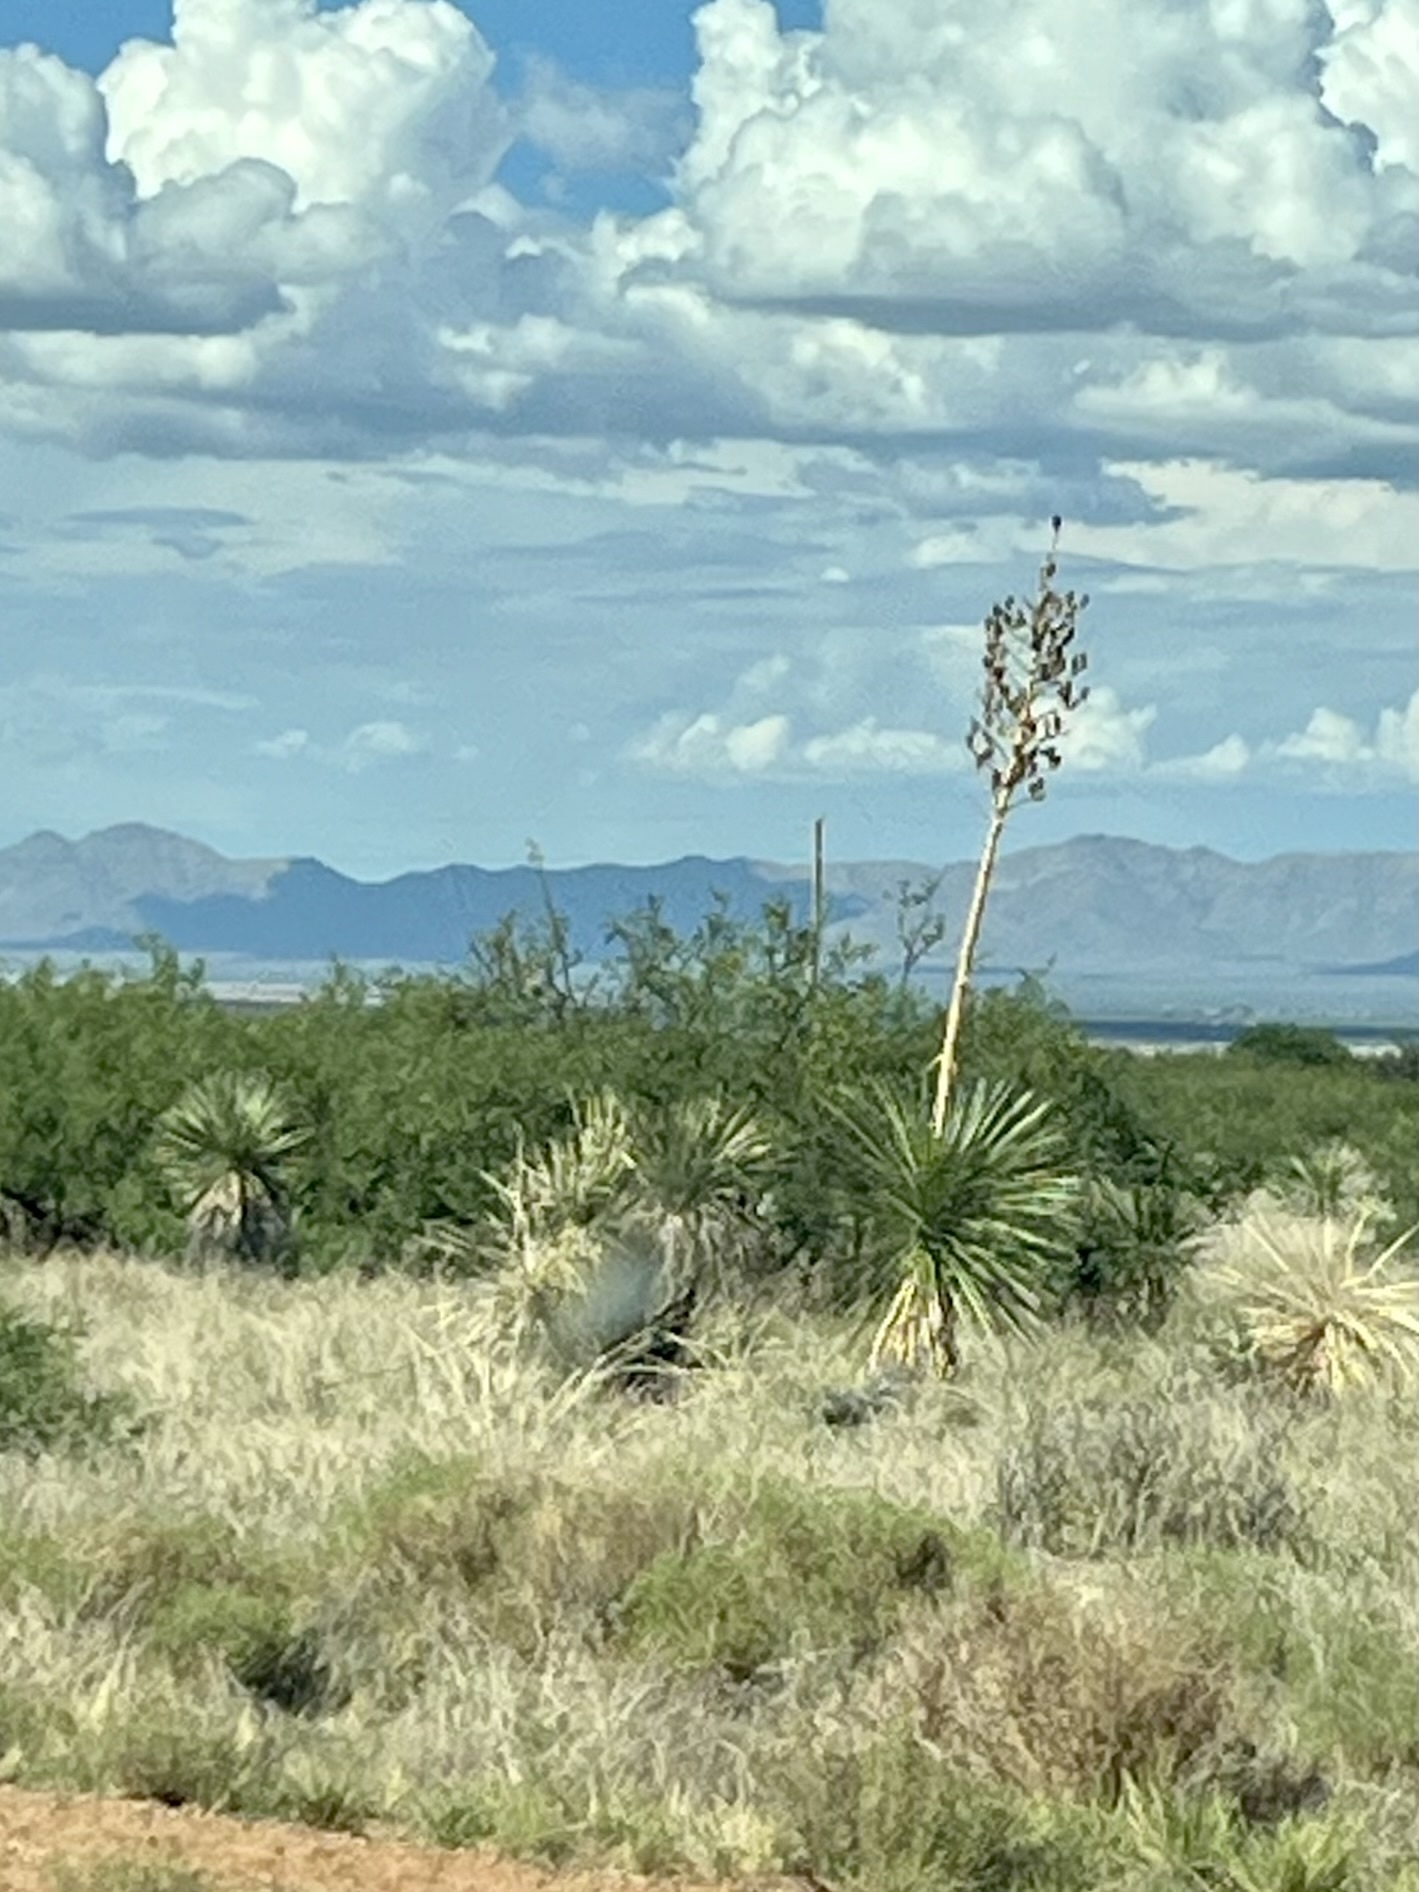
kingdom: Plantae
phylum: Tracheophyta
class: Liliopsida
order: Asparagales
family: Asparagaceae
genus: Yucca
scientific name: Yucca elata
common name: Palmella
